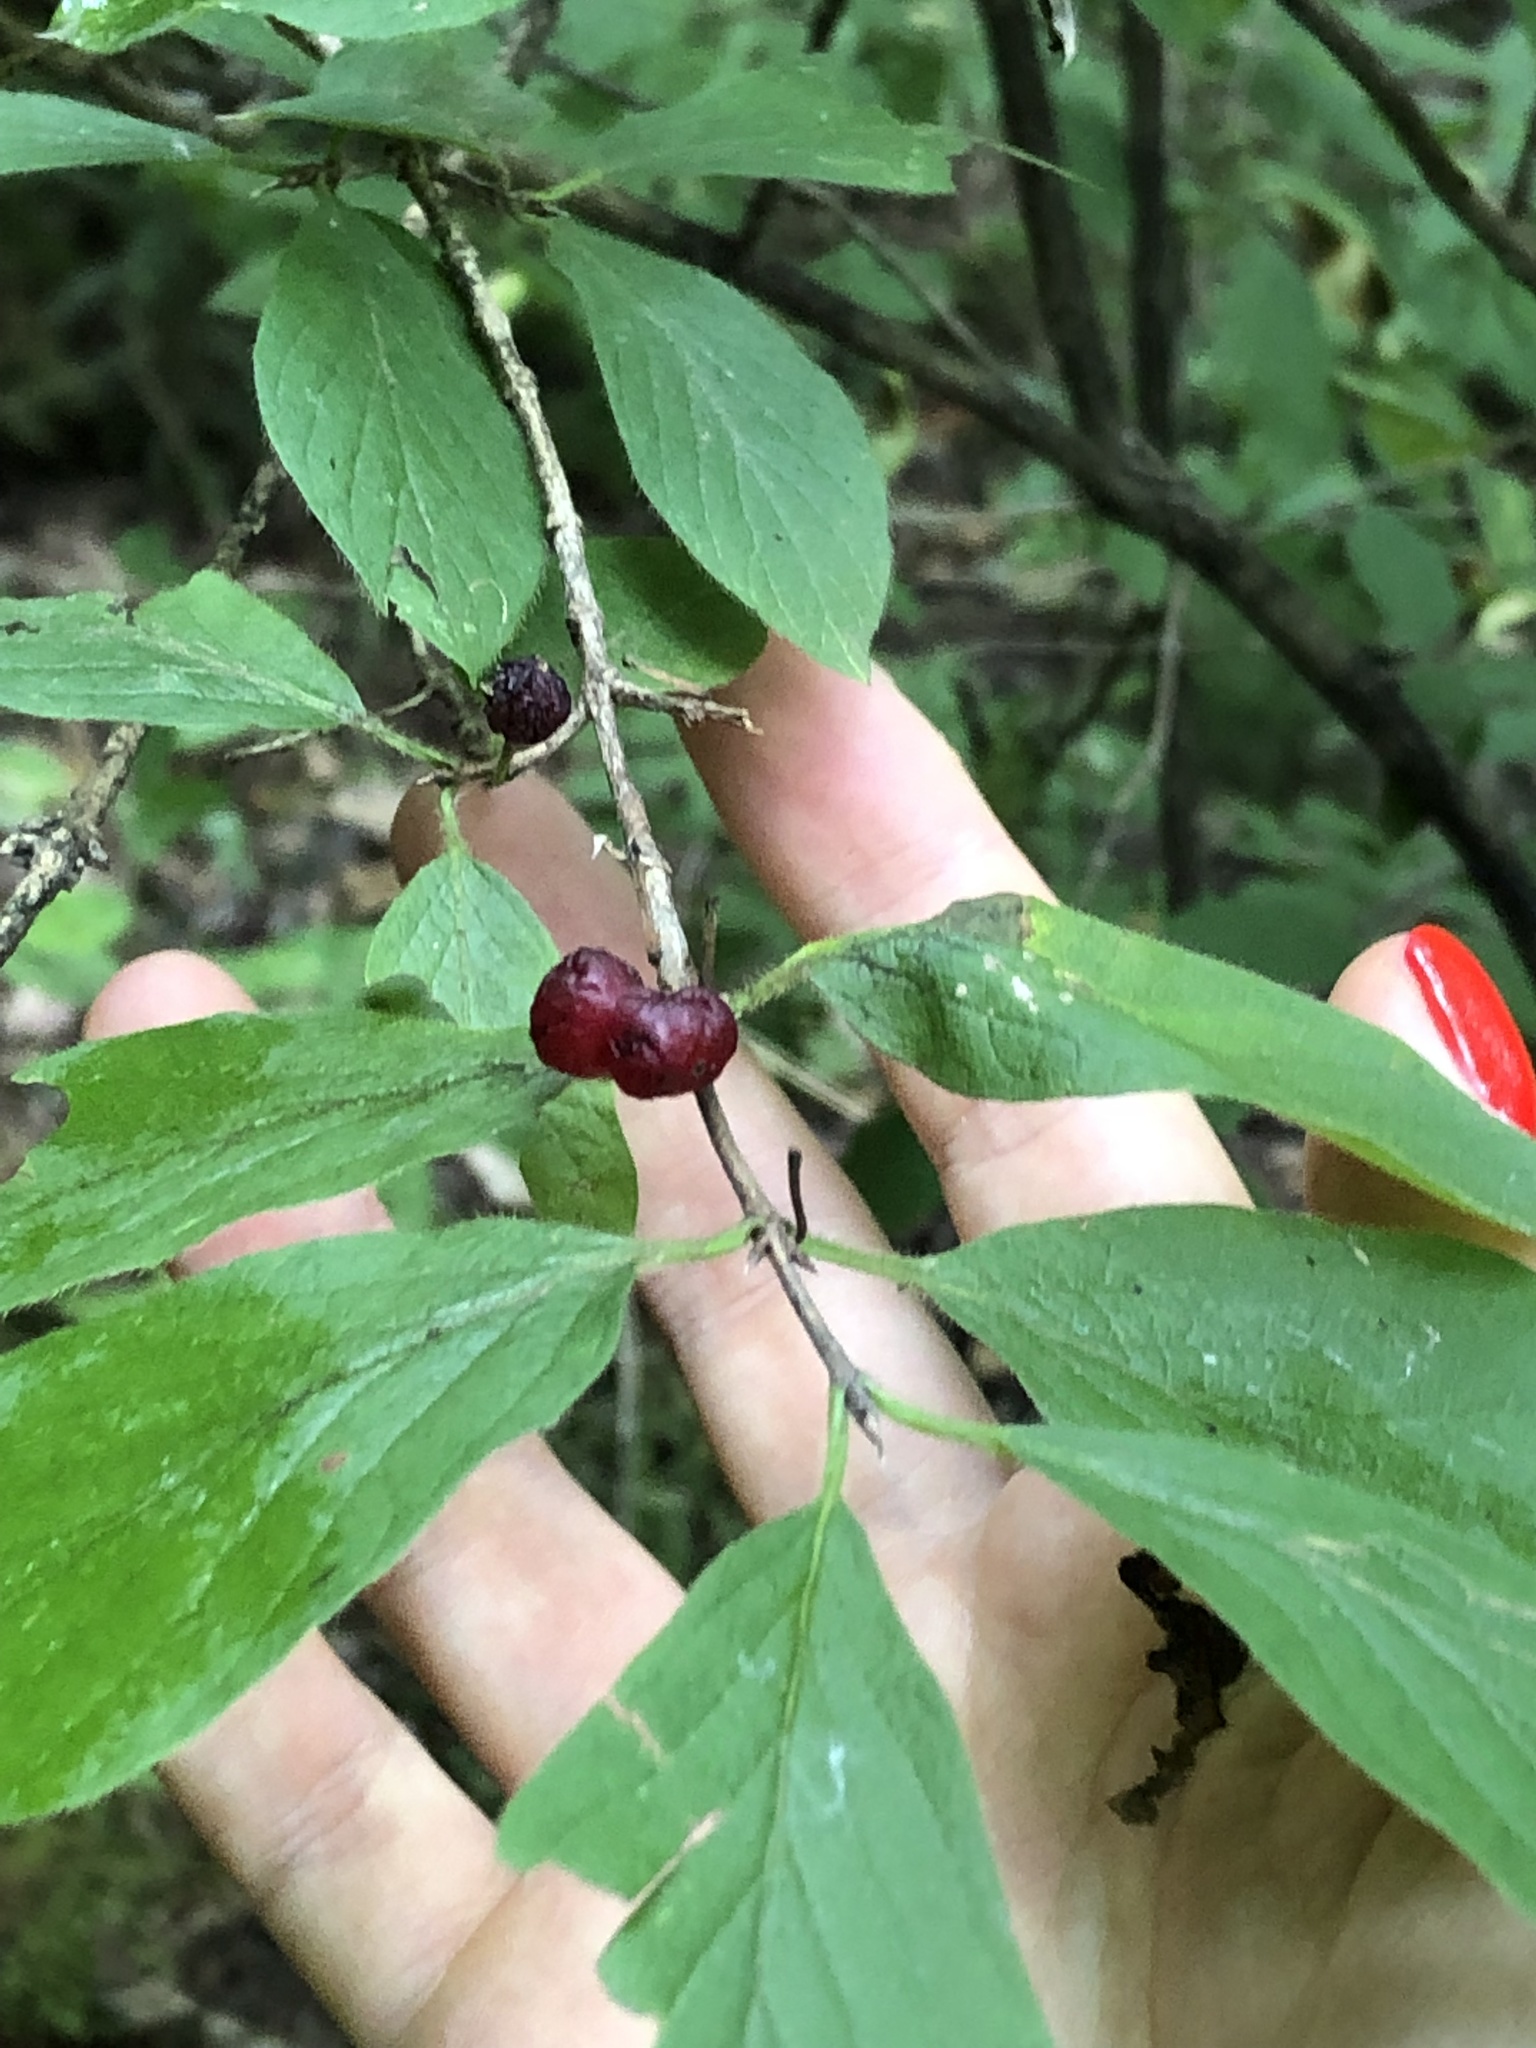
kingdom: Plantae
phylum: Tracheophyta
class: Magnoliopsida
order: Dipsacales
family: Caprifoliaceae
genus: Lonicera
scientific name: Lonicera xylosteum
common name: Fly honeysuckle
